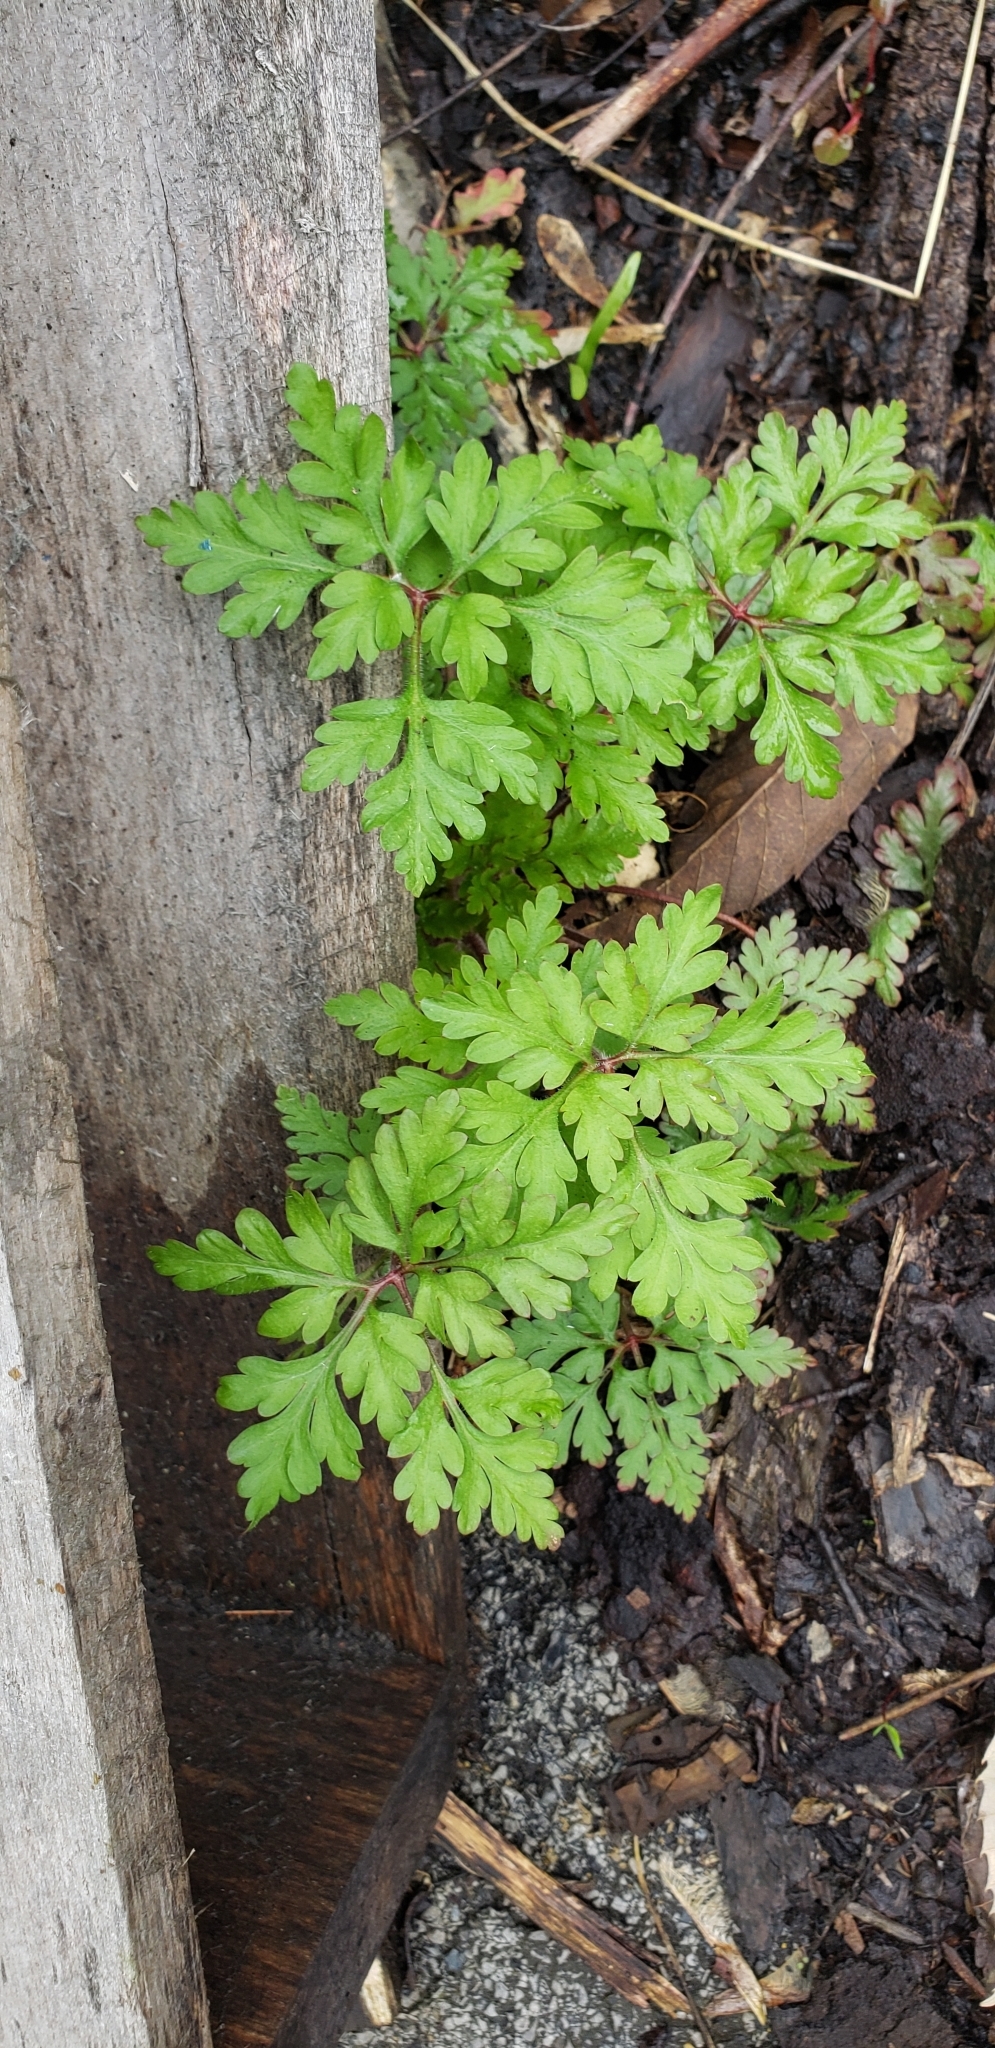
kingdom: Plantae
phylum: Tracheophyta
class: Magnoliopsida
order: Geraniales
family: Geraniaceae
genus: Geranium
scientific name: Geranium robertianum
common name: Herb-robert
